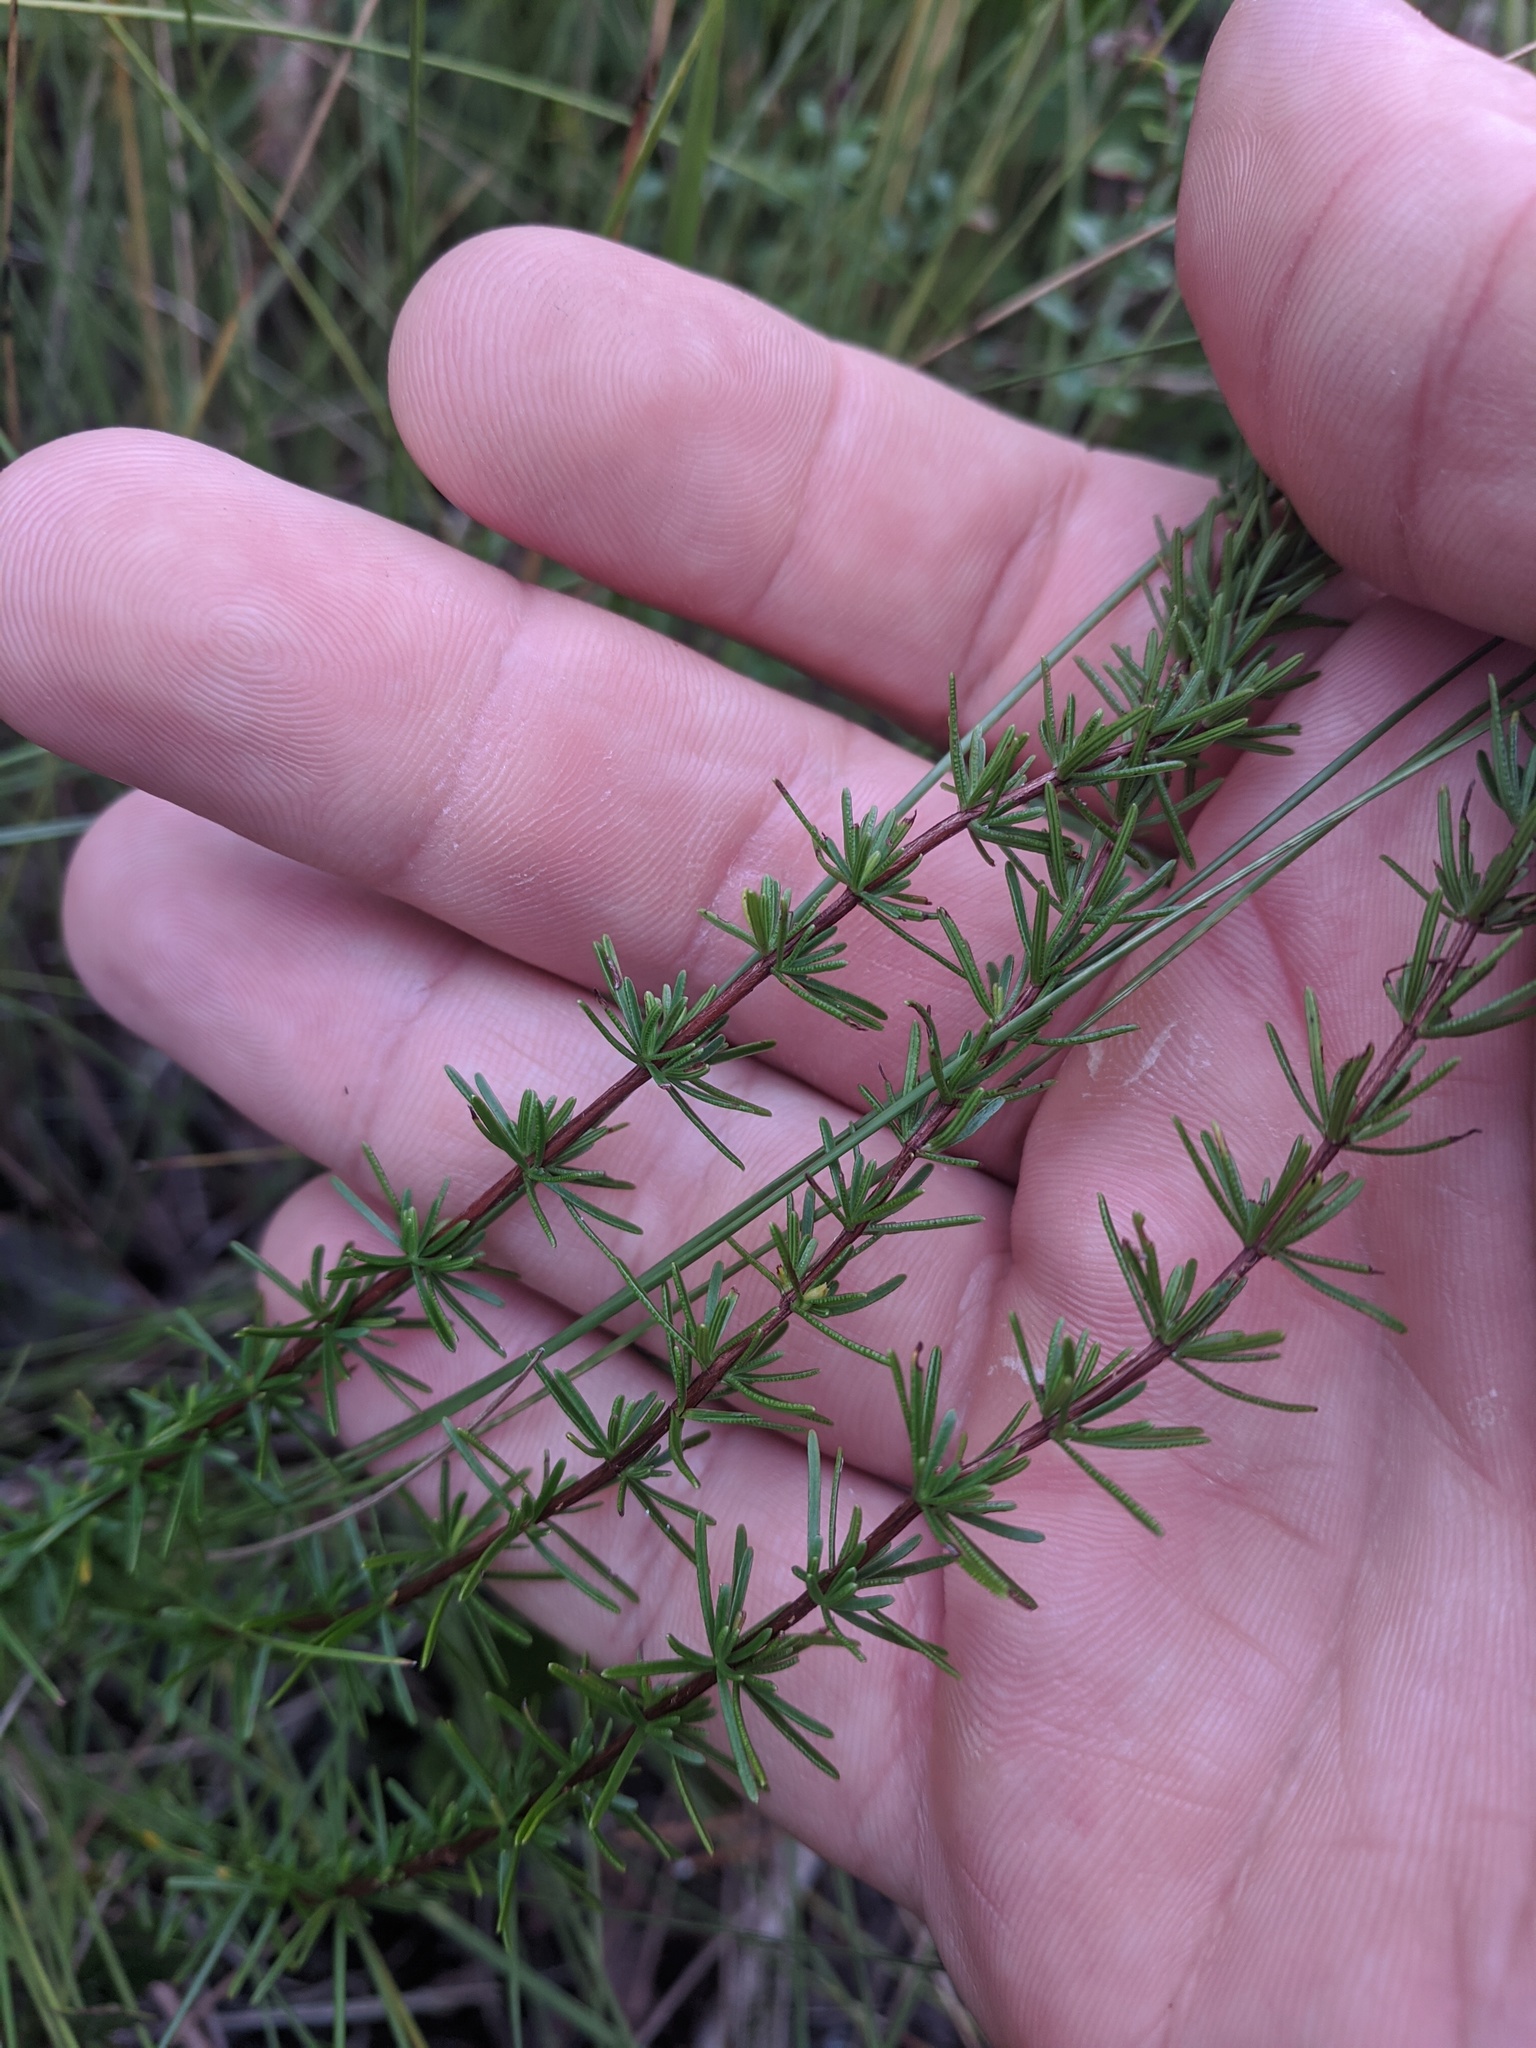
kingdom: Plantae
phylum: Tracheophyta
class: Magnoliopsida
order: Malpighiales
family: Hypericaceae
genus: Hypericum
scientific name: Hypericum tenuifolium
